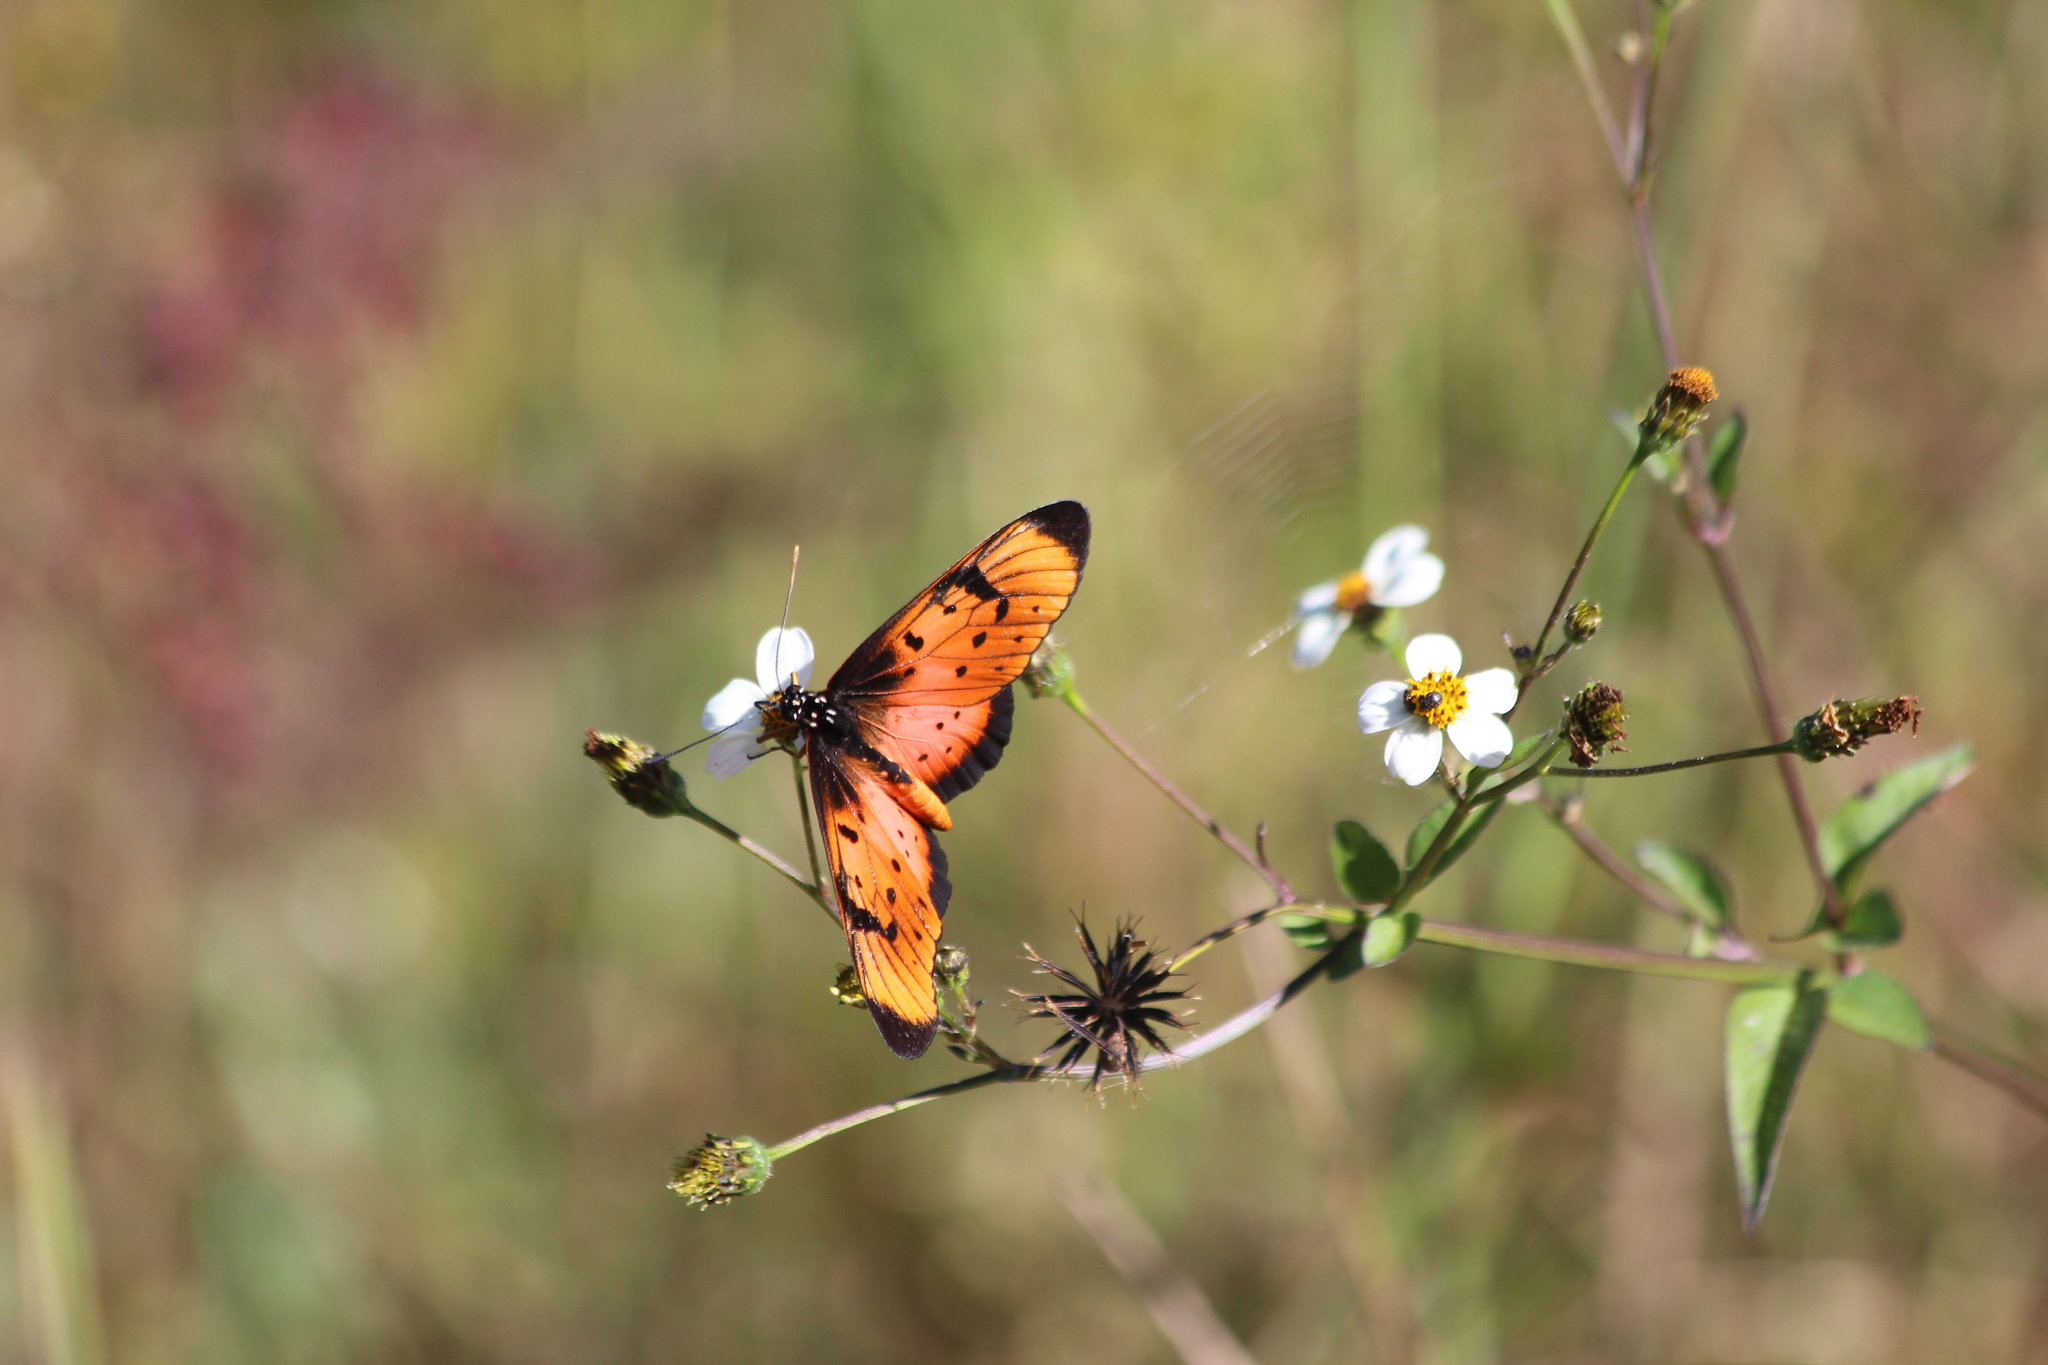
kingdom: Animalia
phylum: Arthropoda
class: Insecta
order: Lepidoptera
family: Nymphalidae
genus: Stephenia
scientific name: Stephenia
